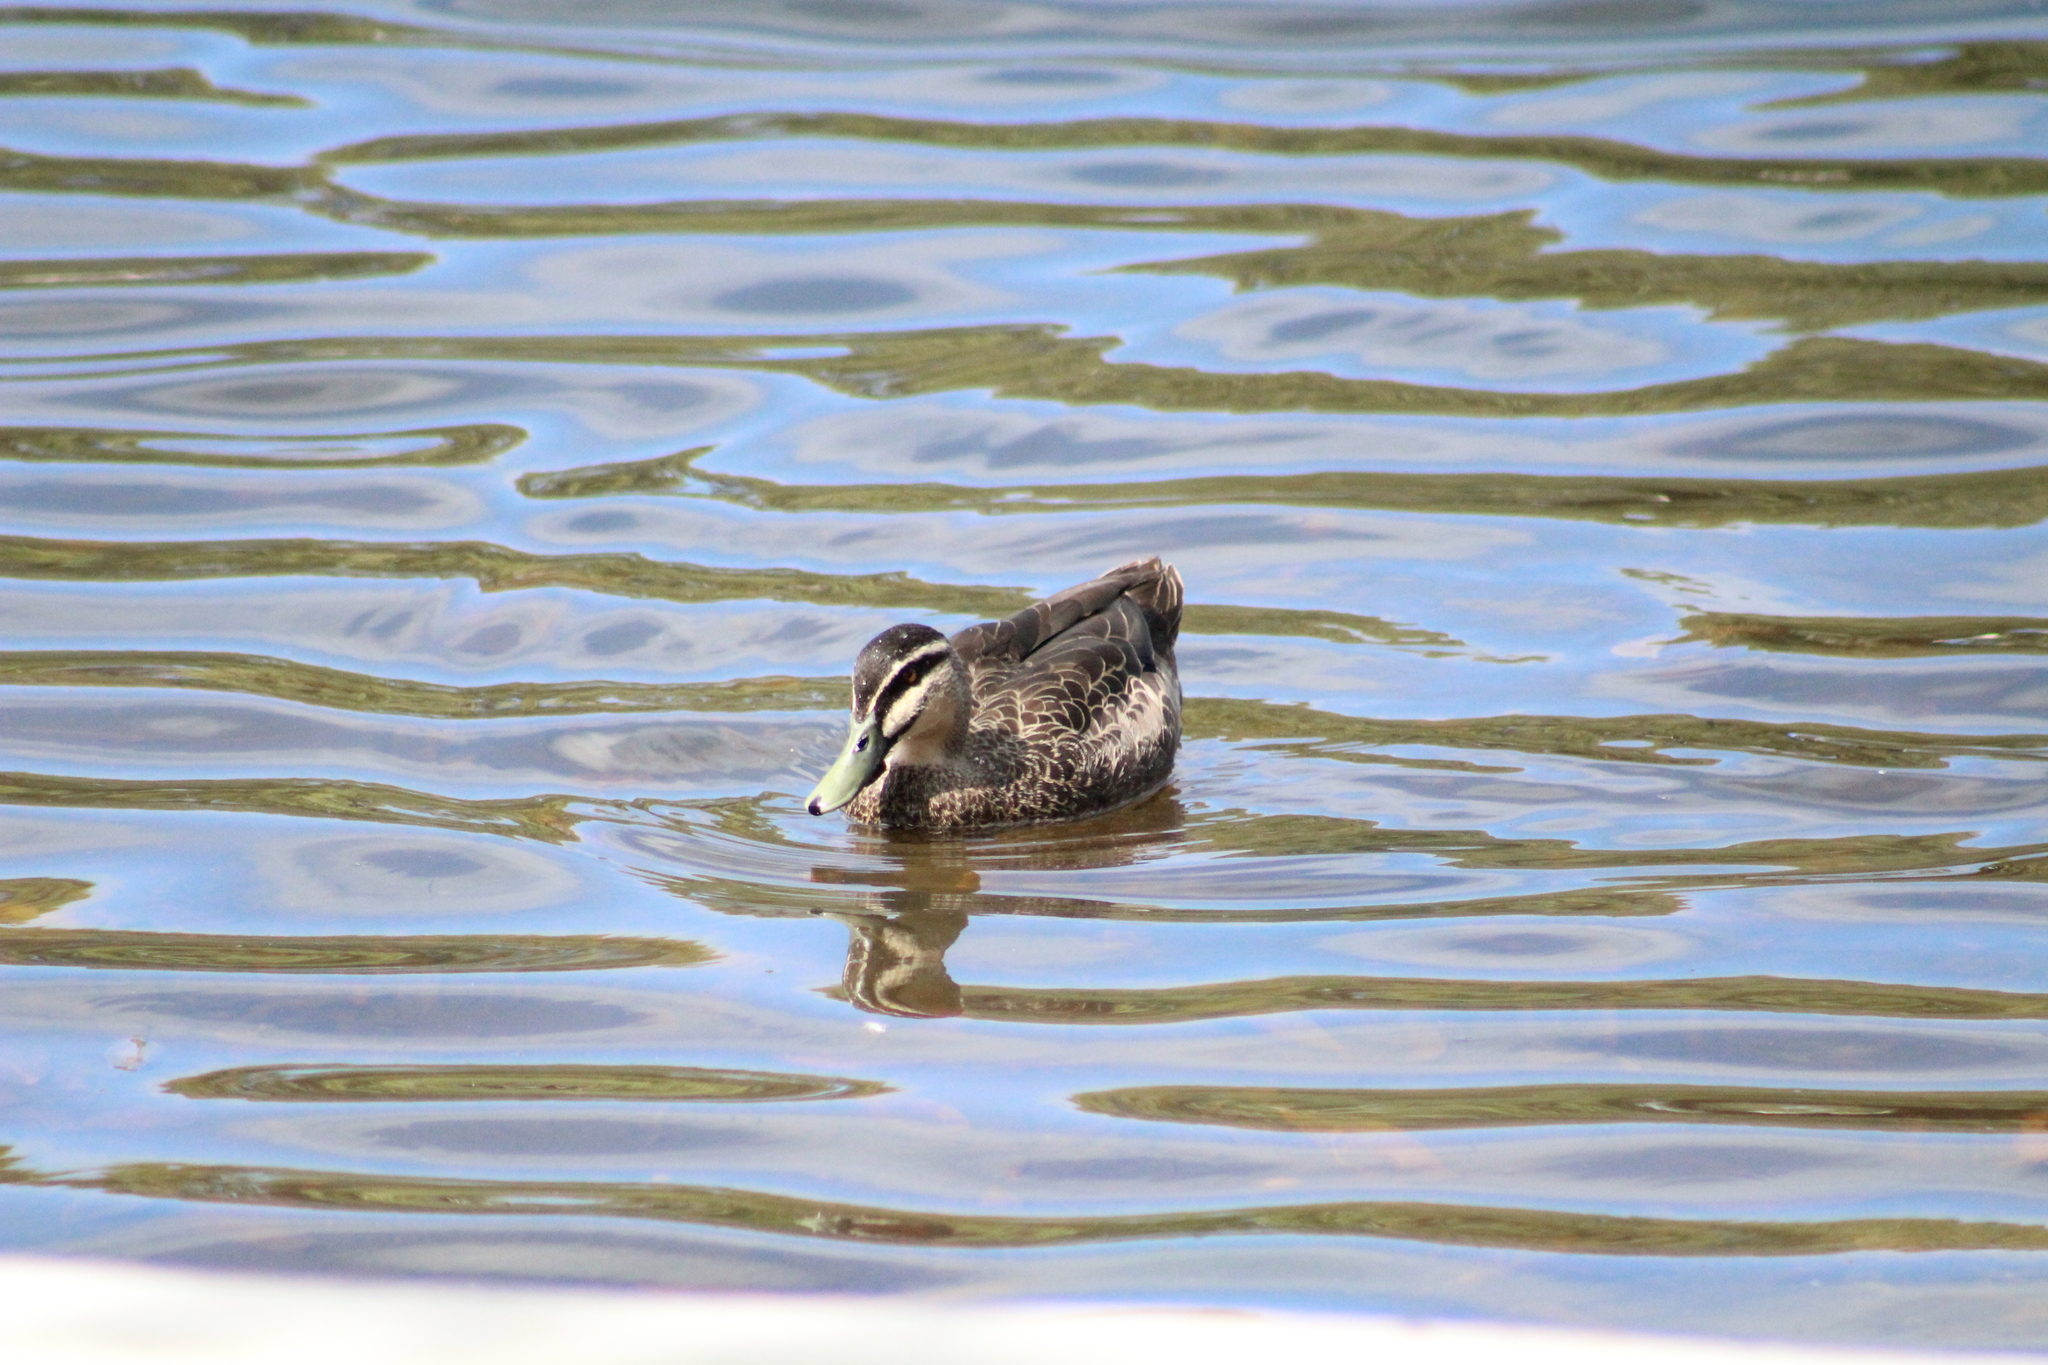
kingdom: Animalia
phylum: Chordata
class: Aves
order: Anseriformes
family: Anatidae
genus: Anas
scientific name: Anas superciliosa
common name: Pacific black duck
